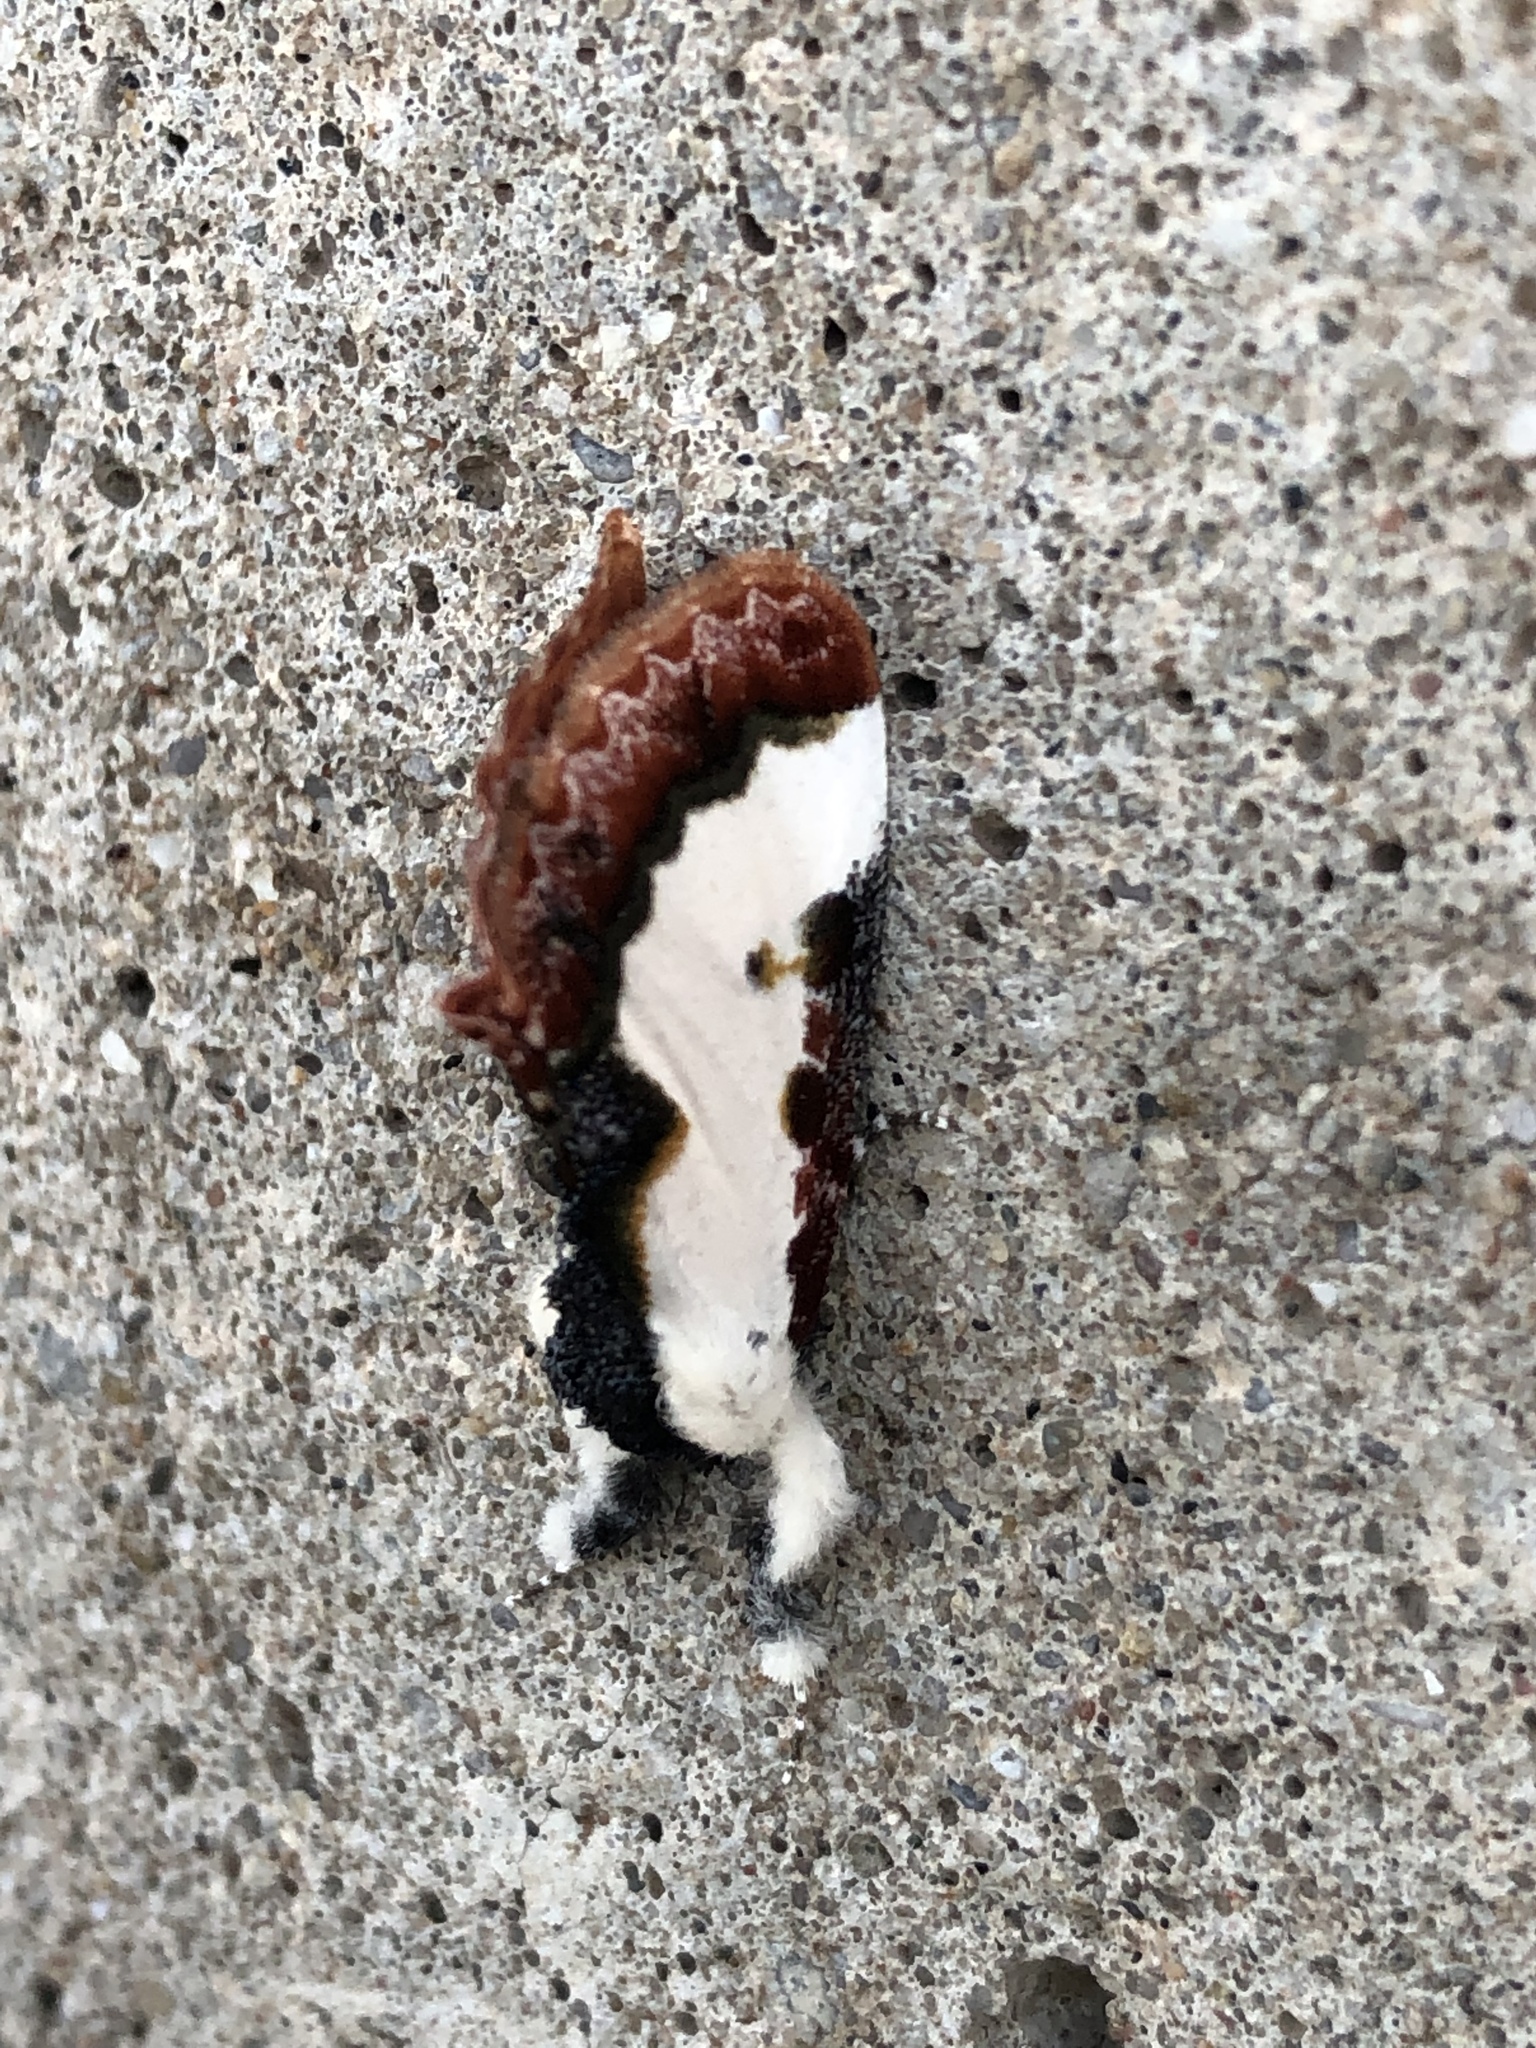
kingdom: Animalia
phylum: Arthropoda
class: Insecta
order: Lepidoptera
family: Noctuidae
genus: Eudryas
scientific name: Eudryas unio
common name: Pearly wood-nymph
